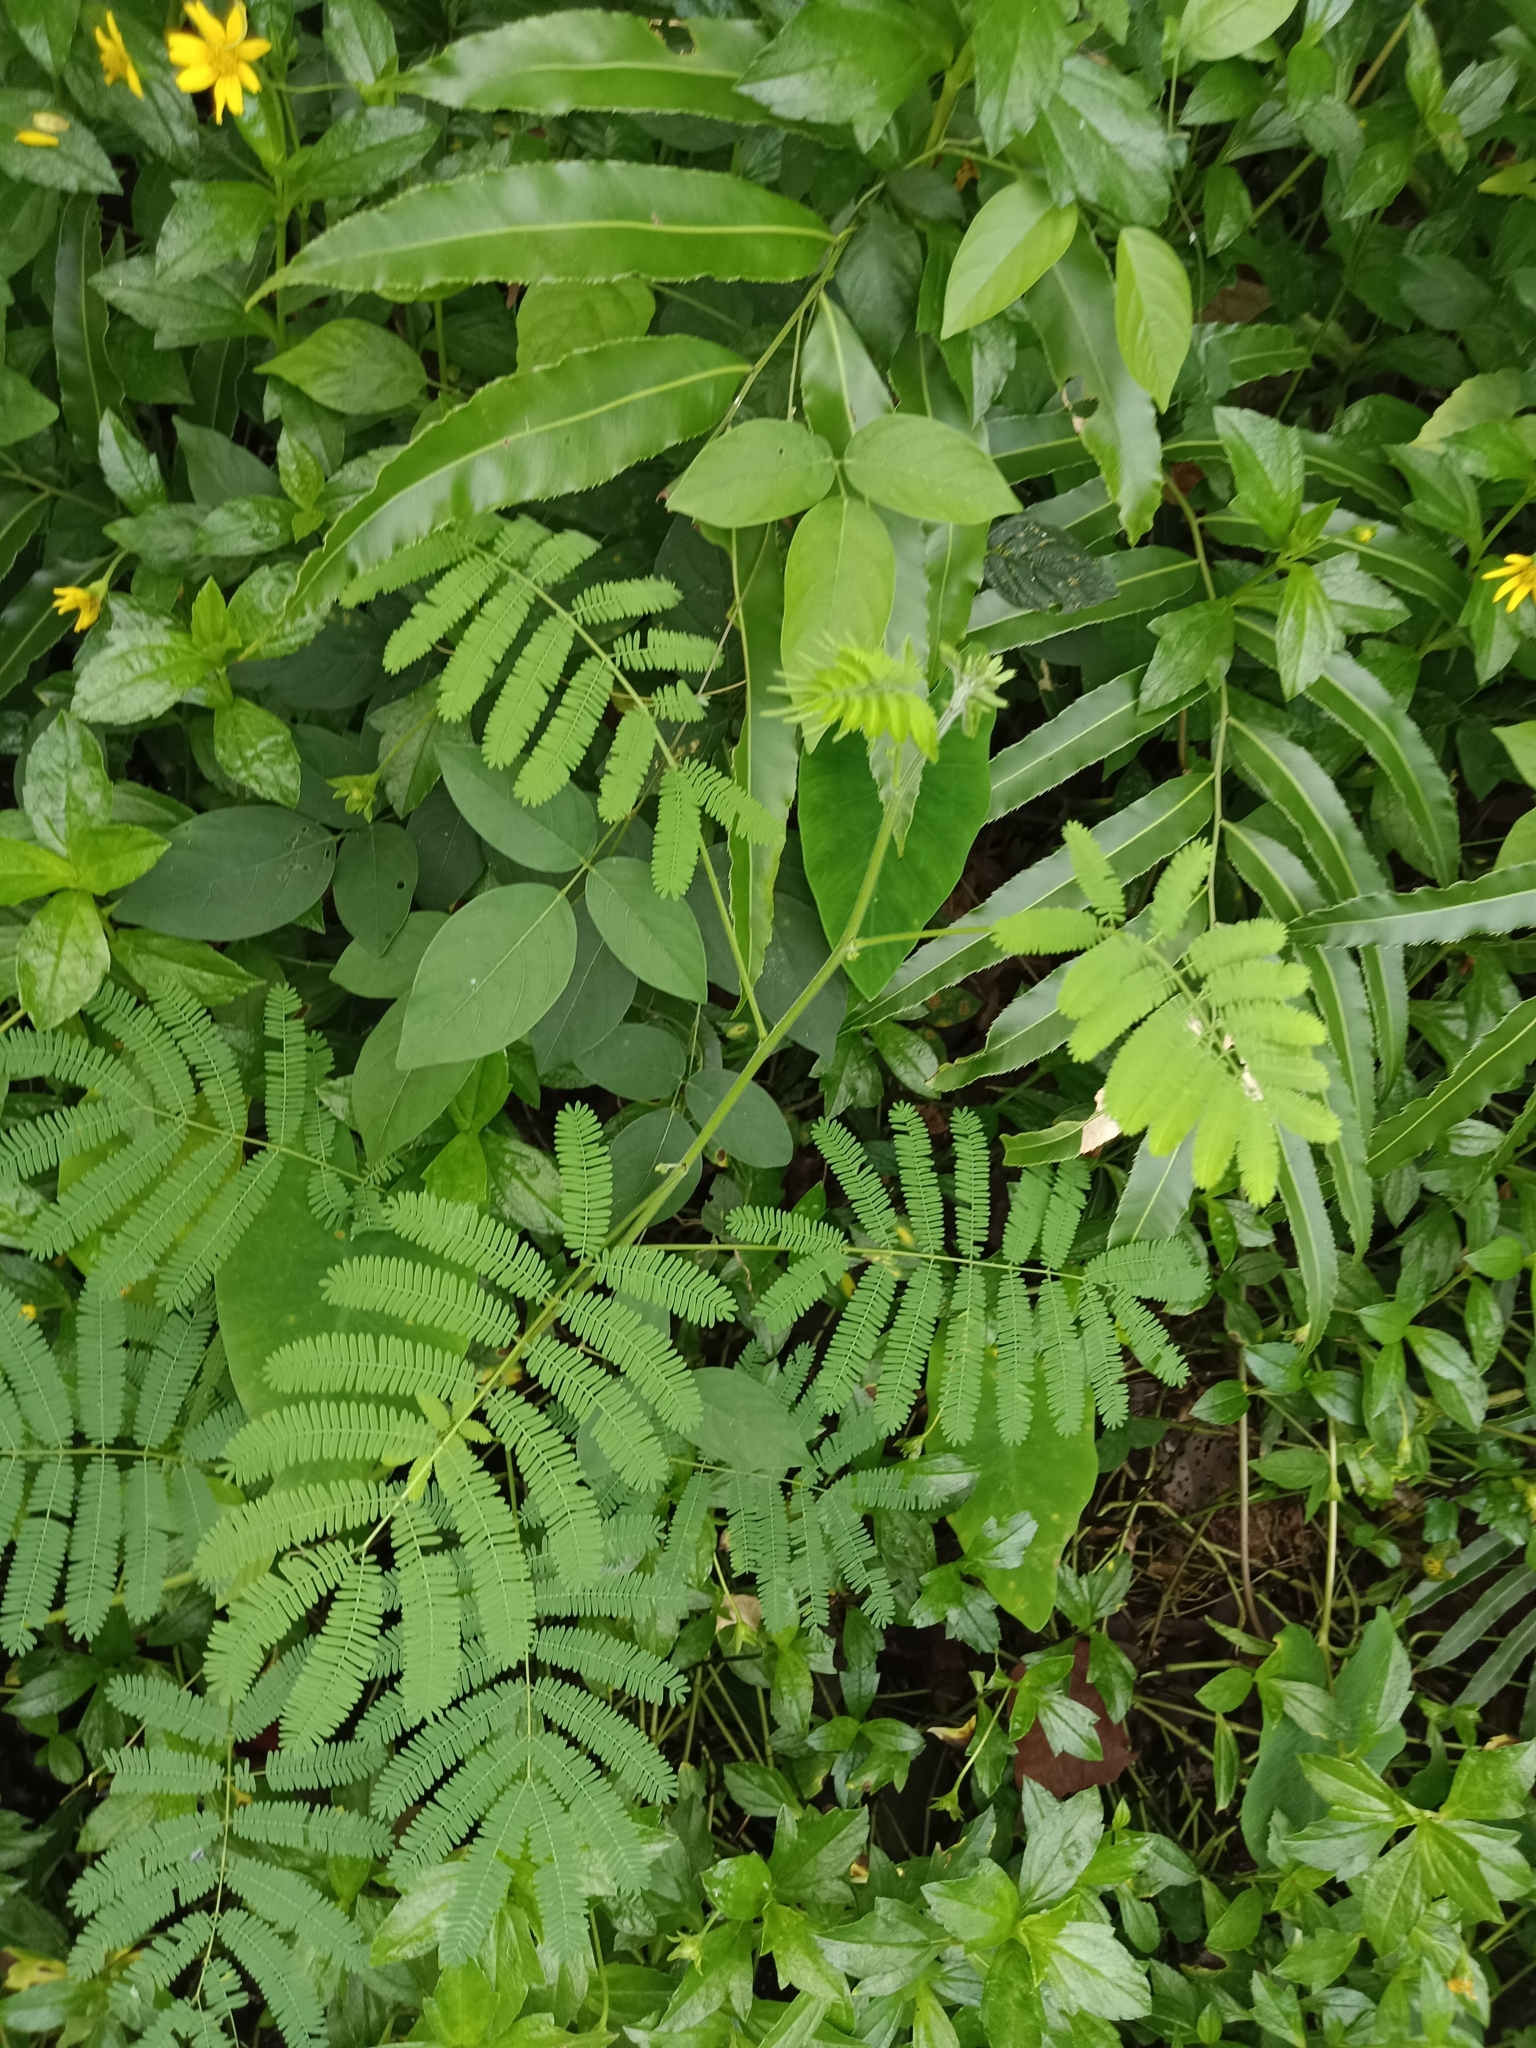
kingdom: Plantae
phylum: Tracheophyta
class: Magnoliopsida
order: Fabales
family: Fabaceae
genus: Mimosa
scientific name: Mimosa diplotricha
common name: Giant sensitive-plant
